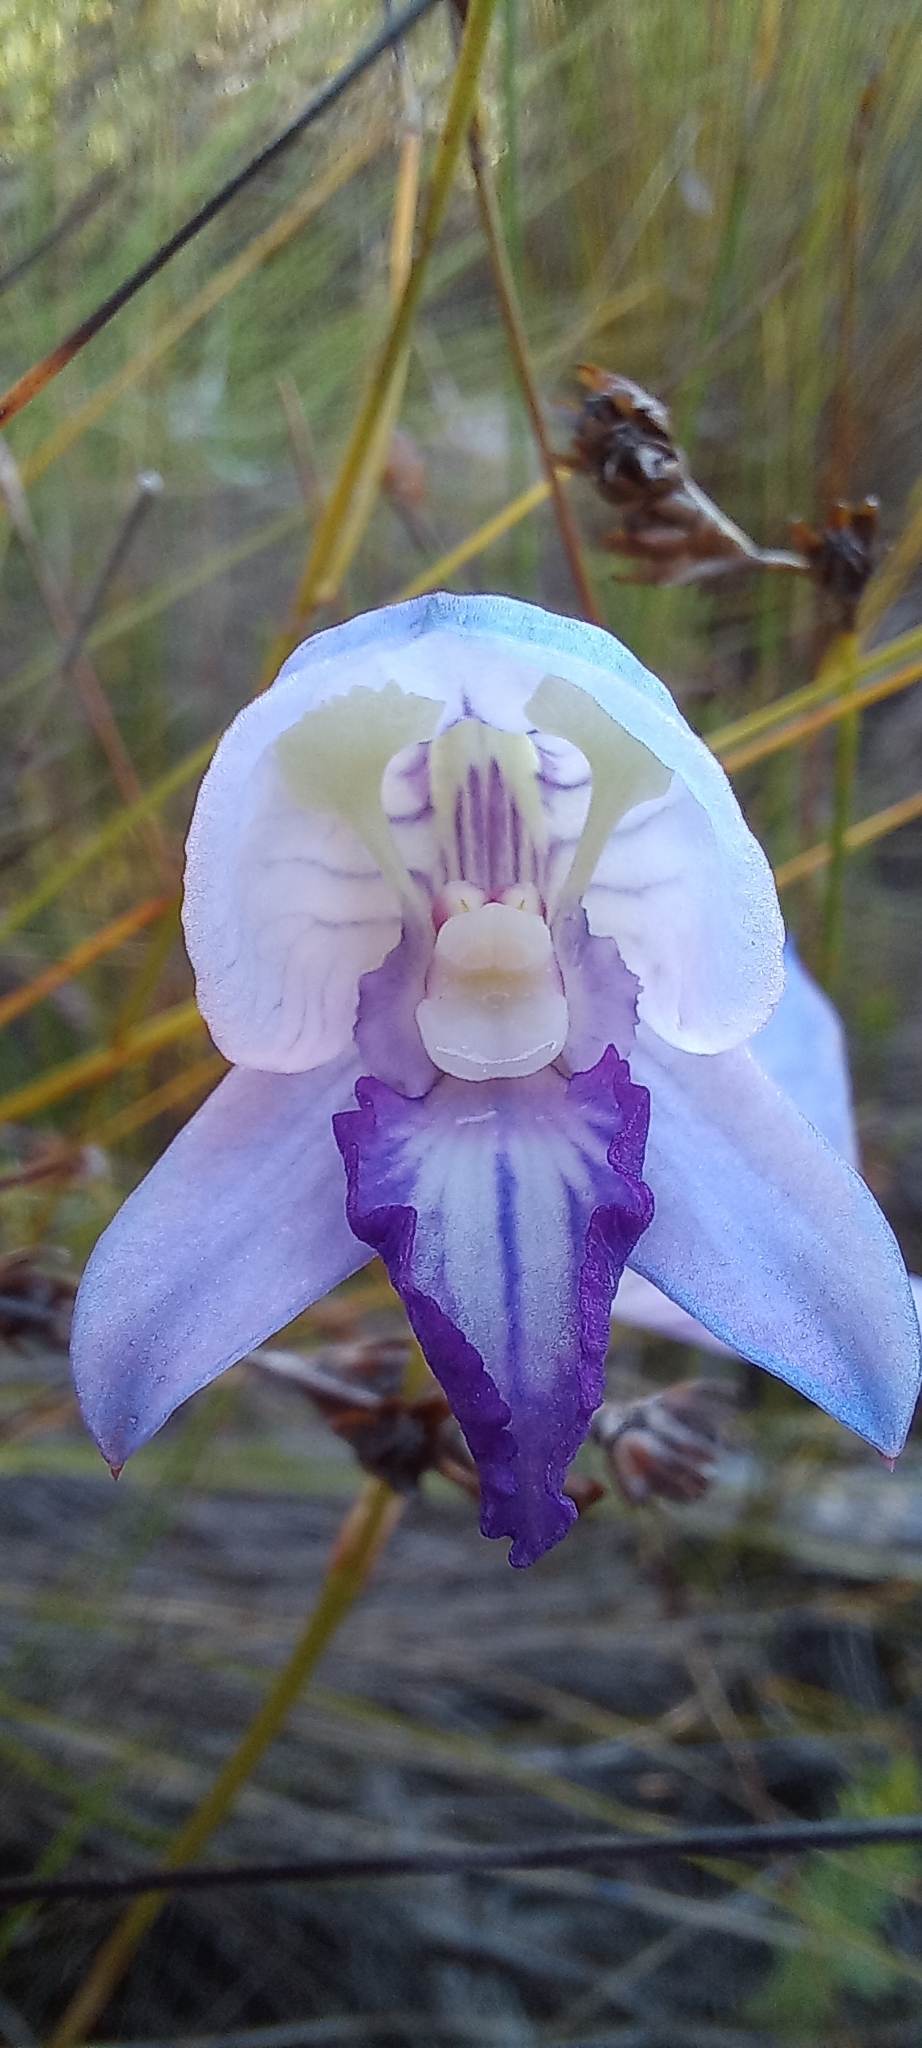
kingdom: Plantae
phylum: Tracheophyta
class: Liliopsida
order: Asparagales
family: Orchidaceae
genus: Disa
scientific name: Disa purpurascens
